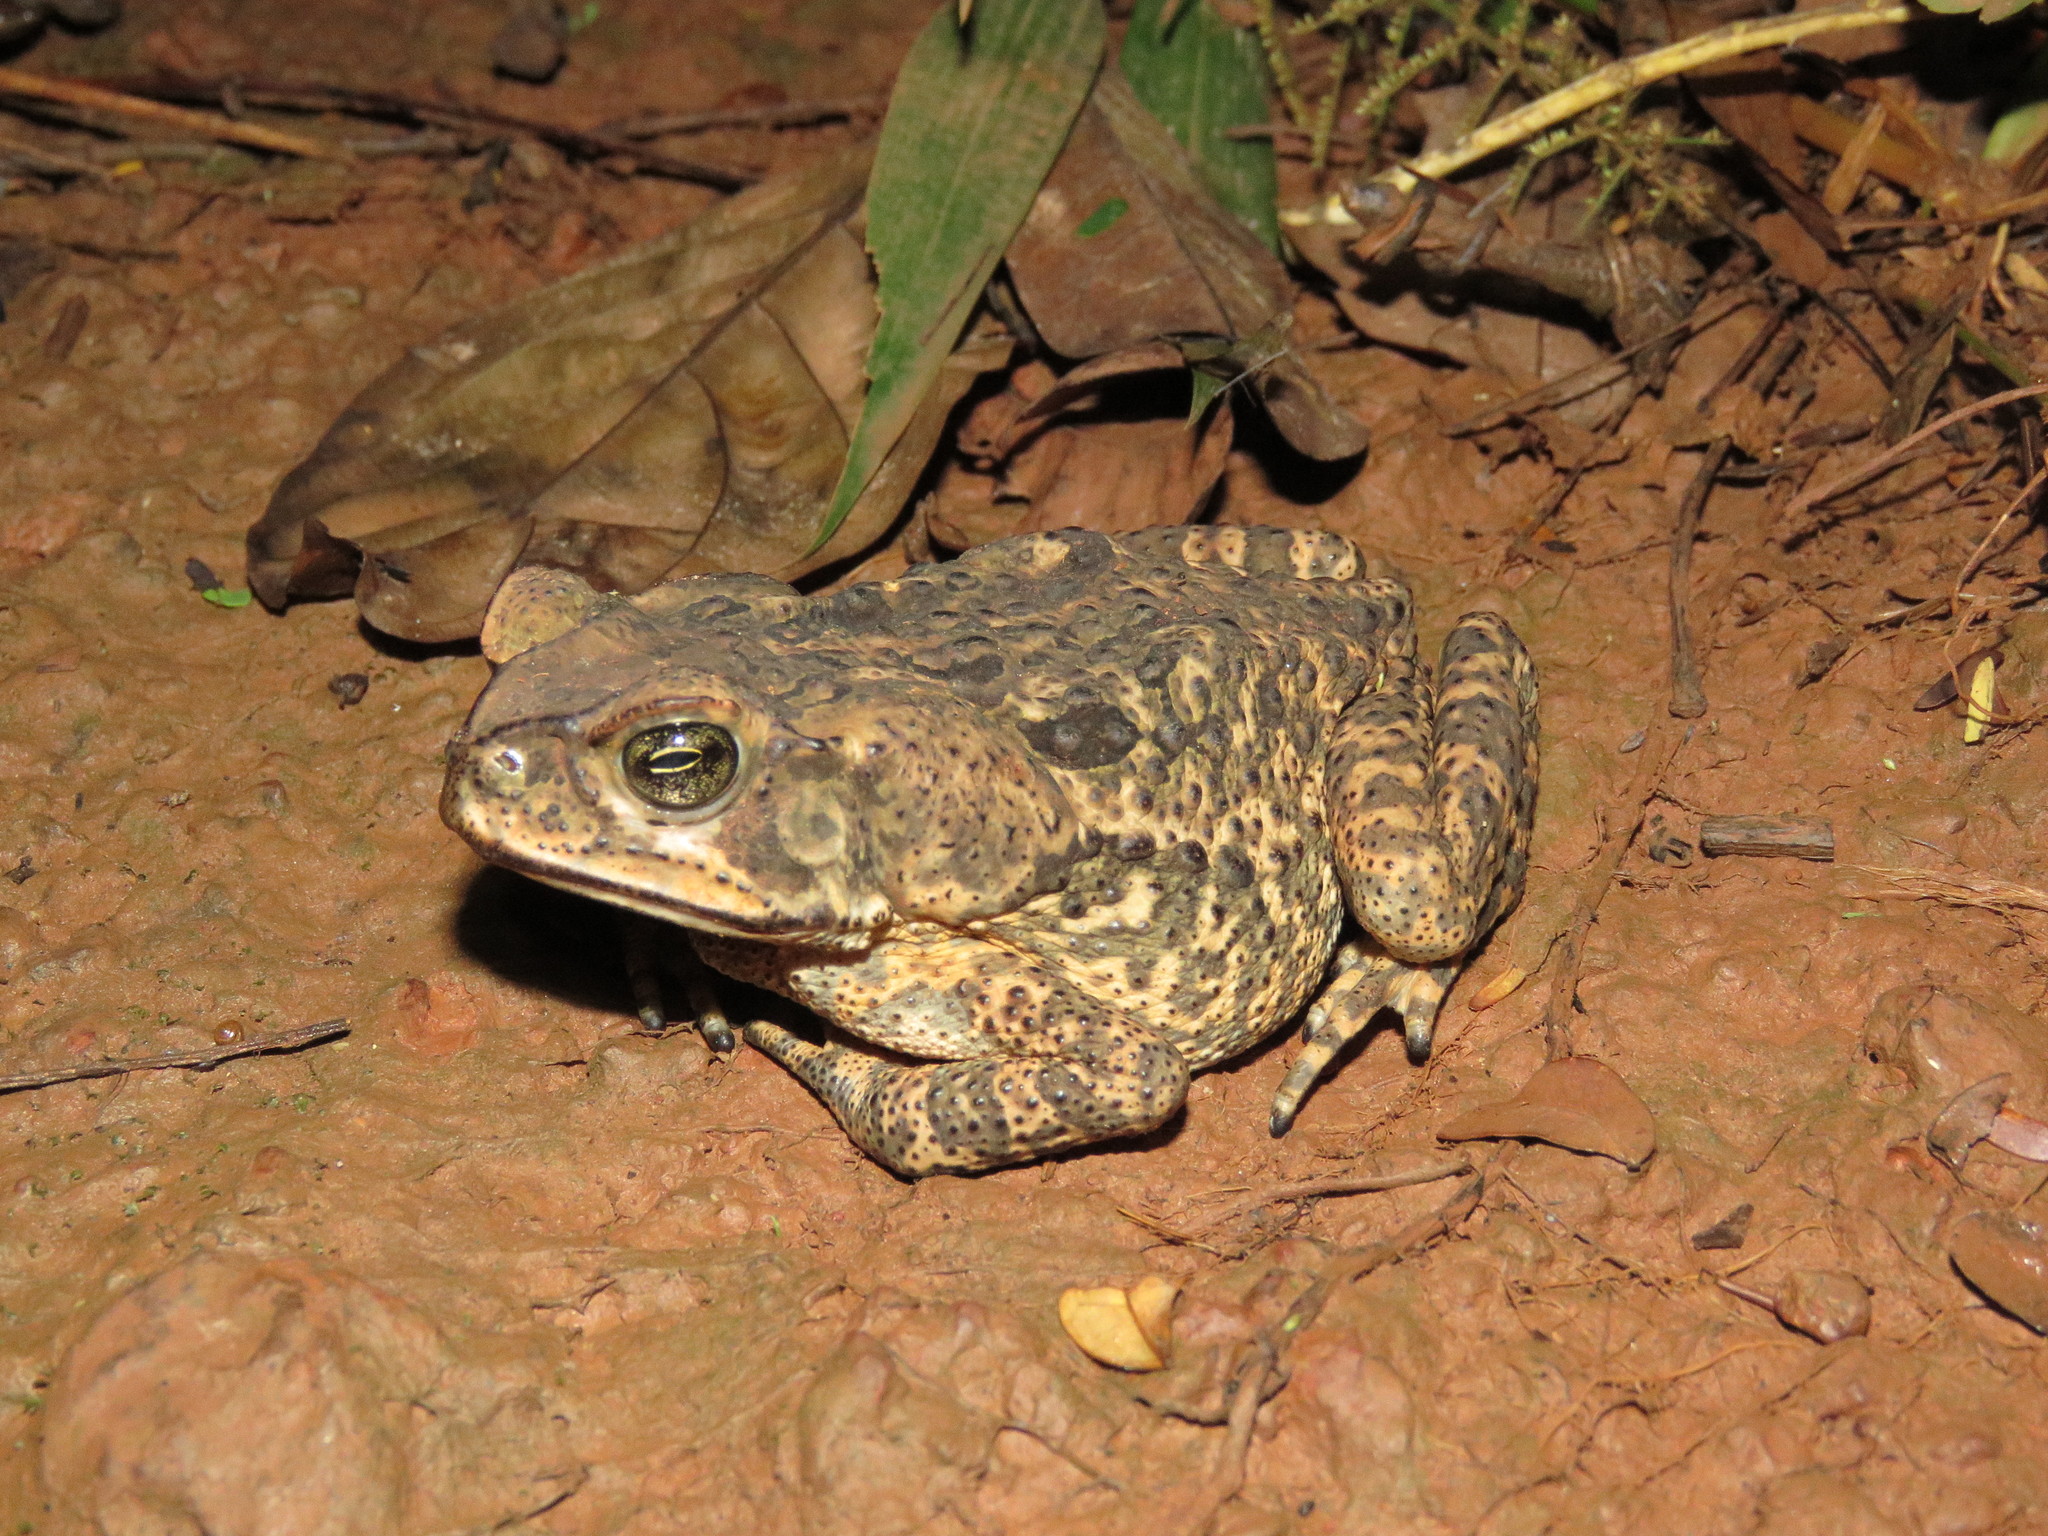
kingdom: Animalia
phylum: Chordata
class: Amphibia
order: Anura
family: Bufonidae
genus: Rhinella
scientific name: Rhinella diptycha
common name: Cope's toad
